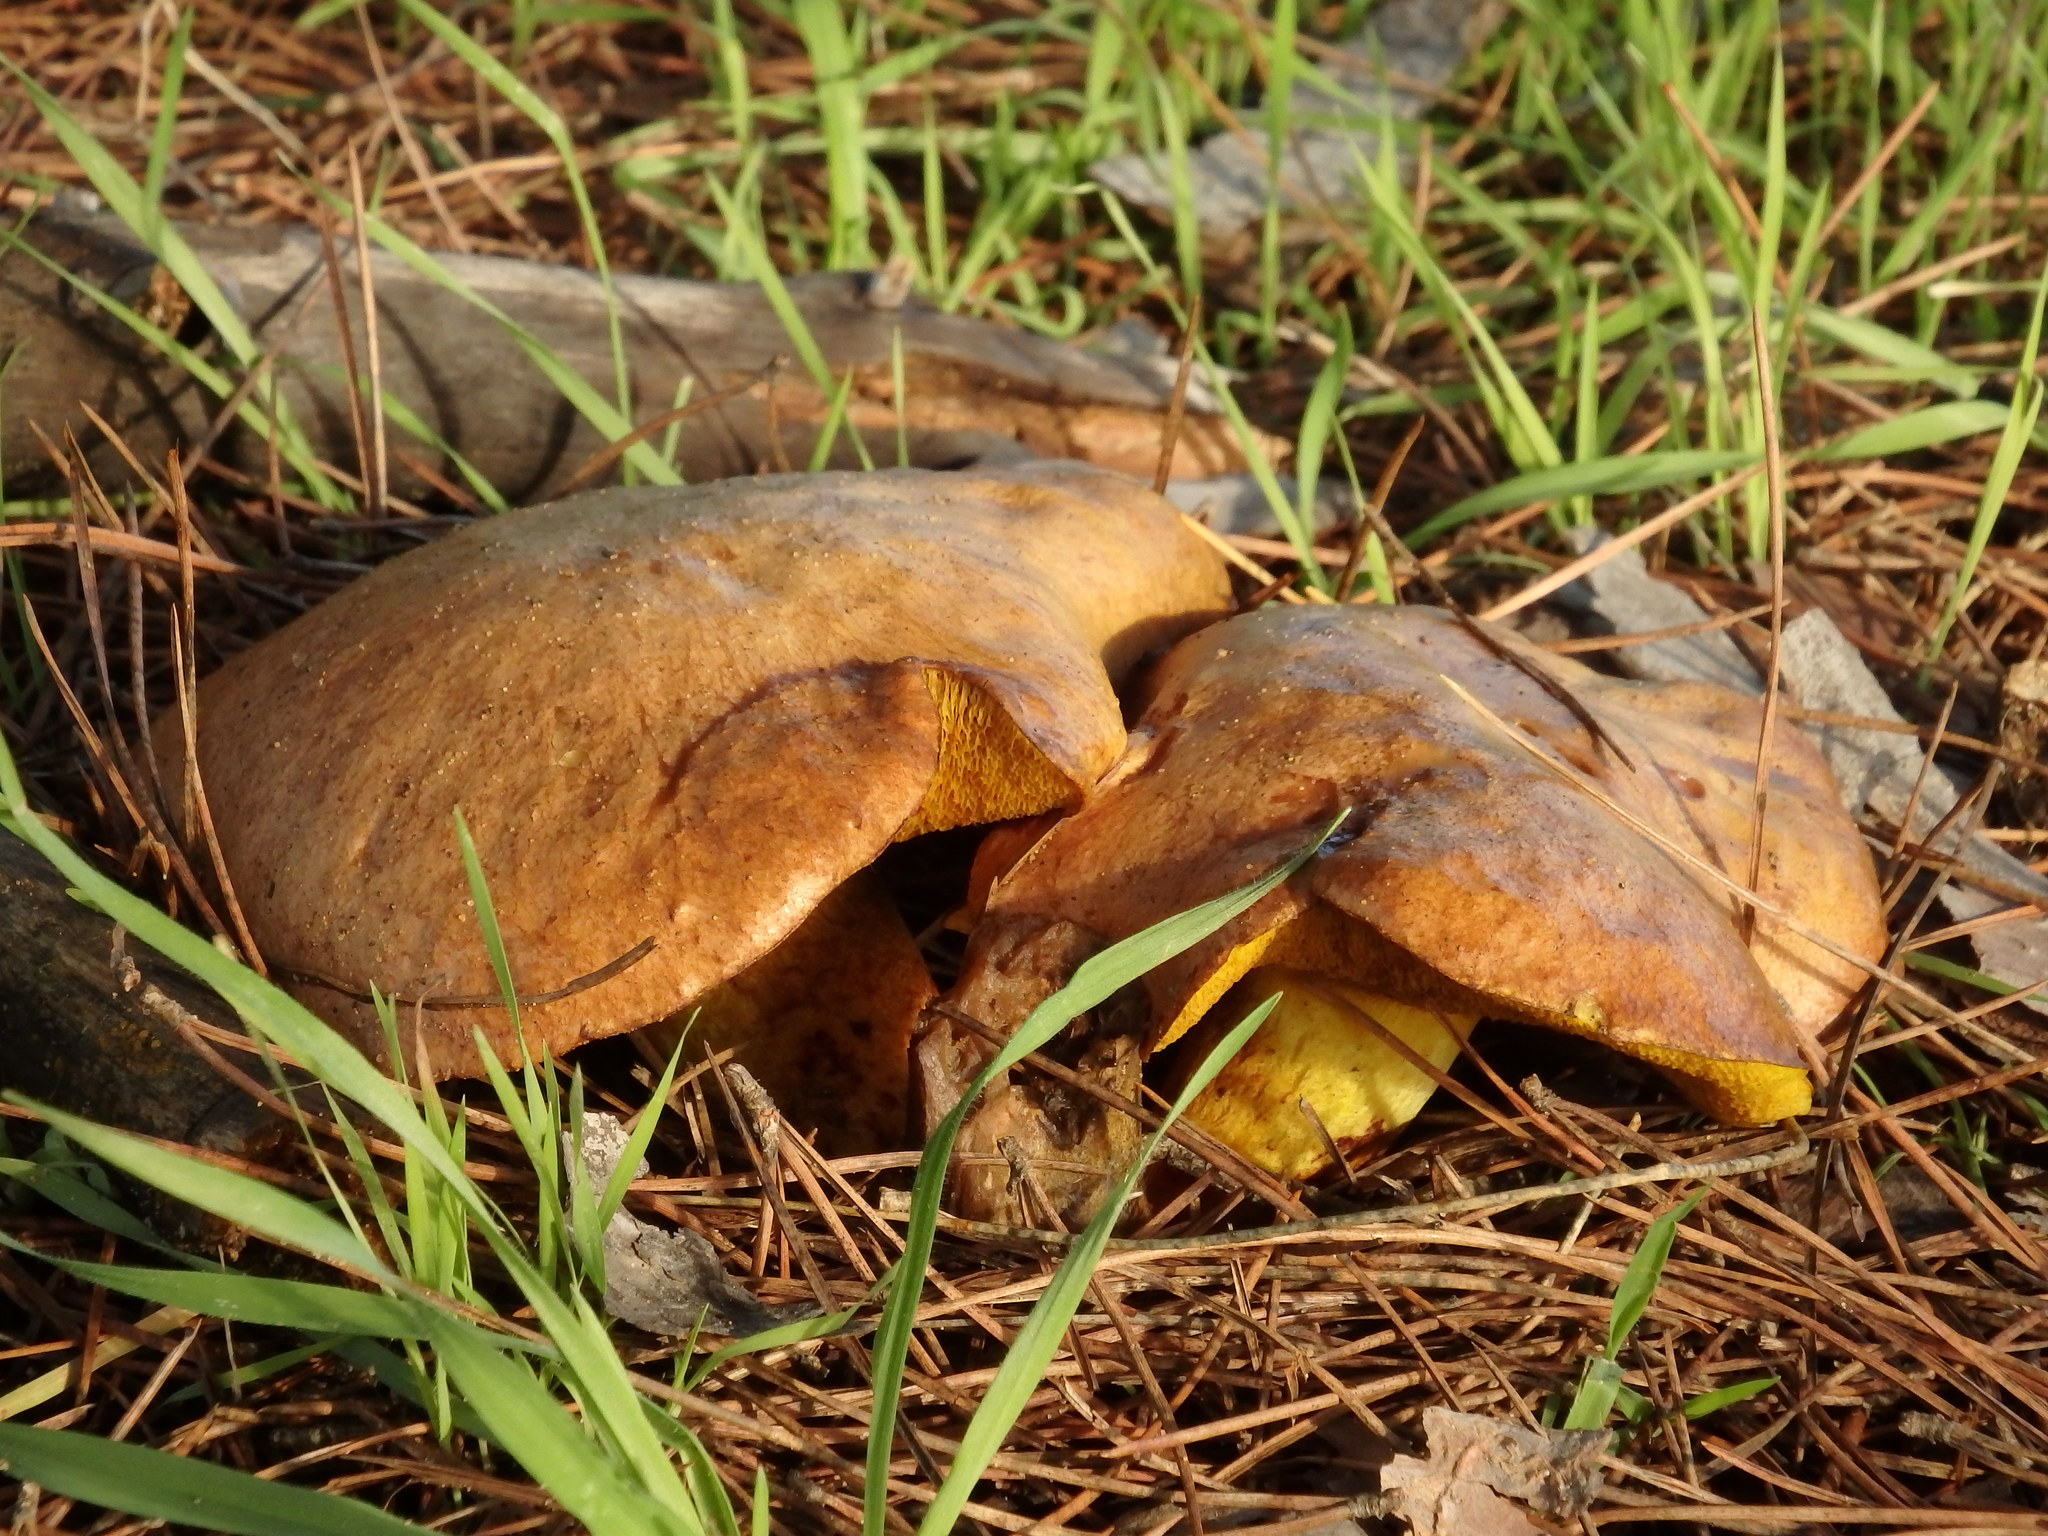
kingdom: Fungi
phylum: Basidiomycota
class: Agaricomycetes
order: Boletales
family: Suillaceae
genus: Suillus
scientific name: Suillus collinitus
